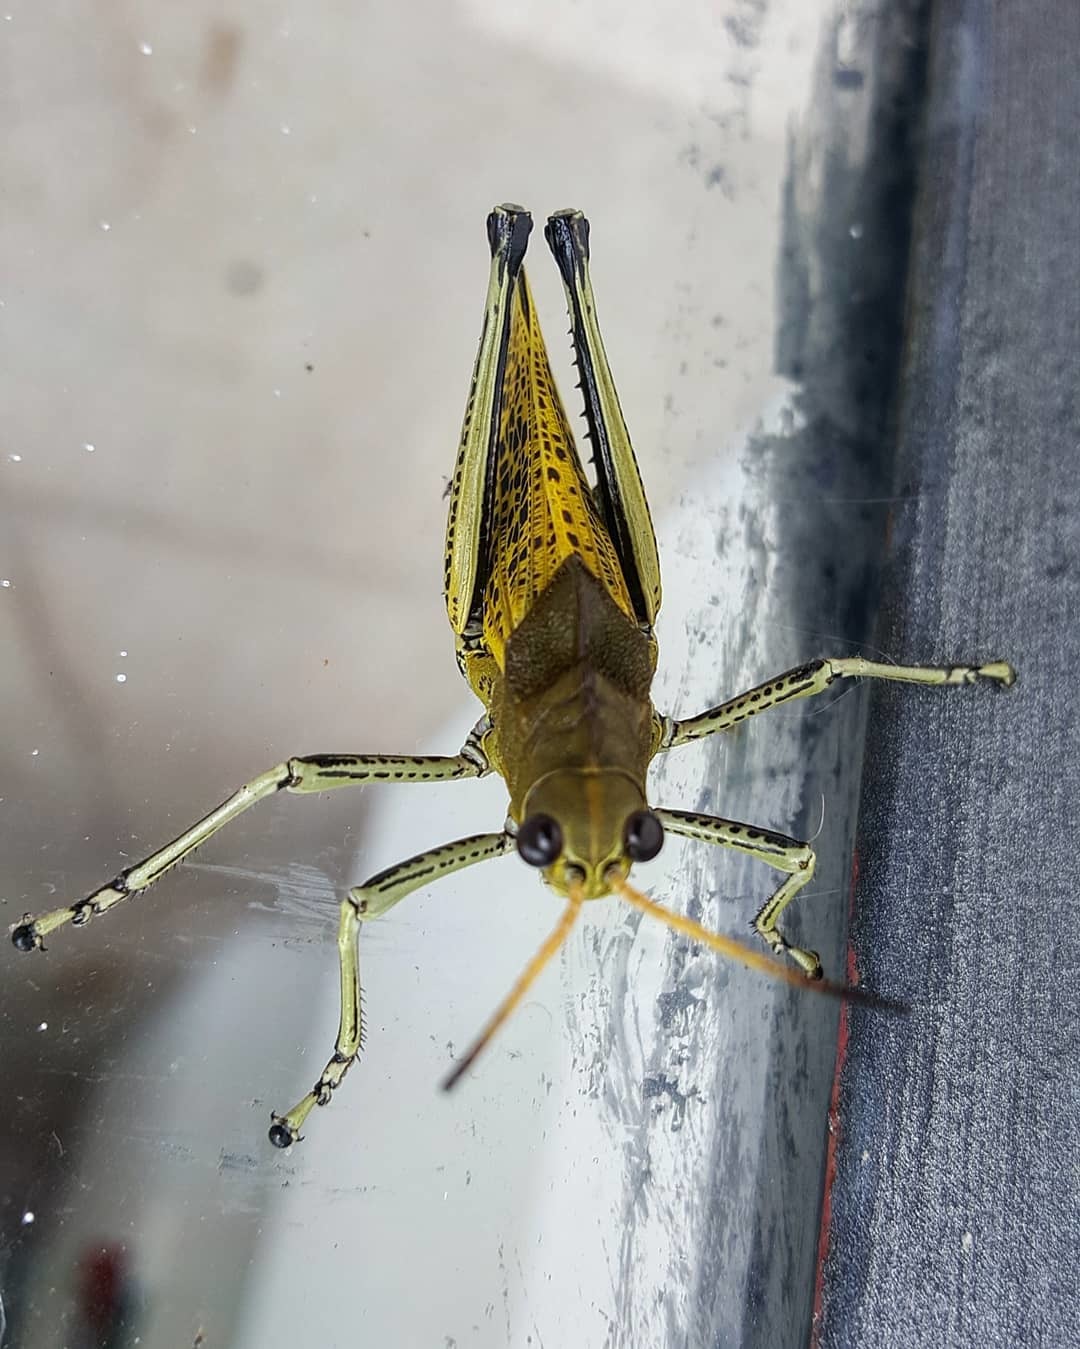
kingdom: Animalia
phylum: Arthropoda
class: Insecta
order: Orthoptera
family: Romaleidae
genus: Romalea
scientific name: Romalea
